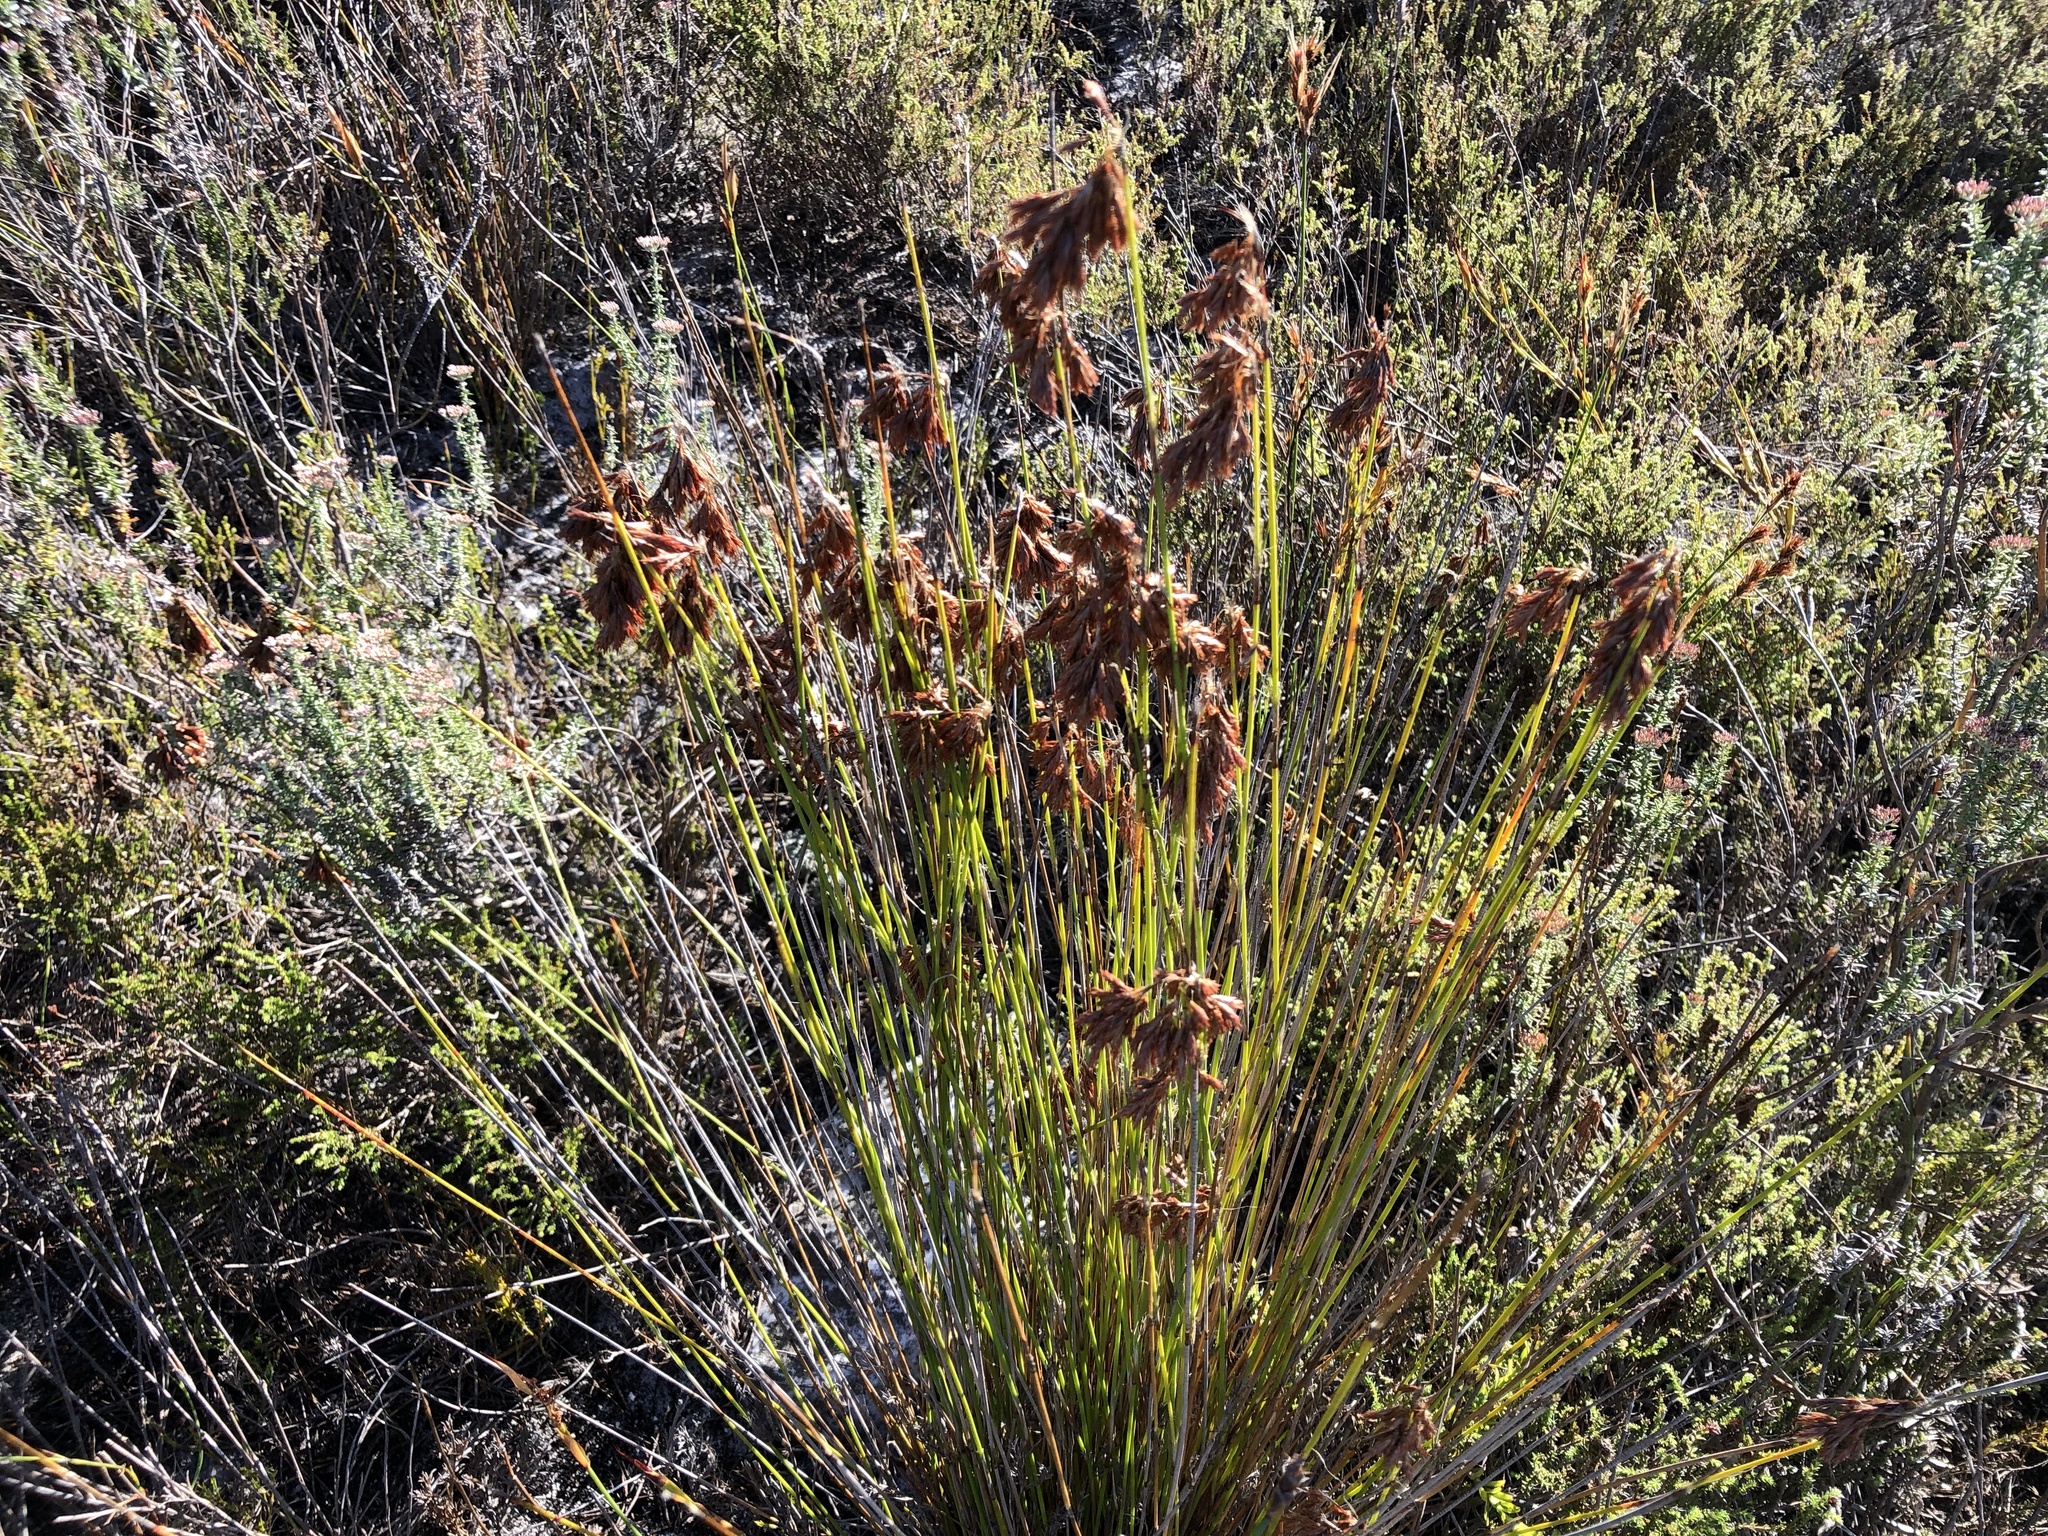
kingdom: Plantae
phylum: Tracheophyta
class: Liliopsida
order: Poales
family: Restionaceae
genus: Staberoha
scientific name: Staberoha distachyos
